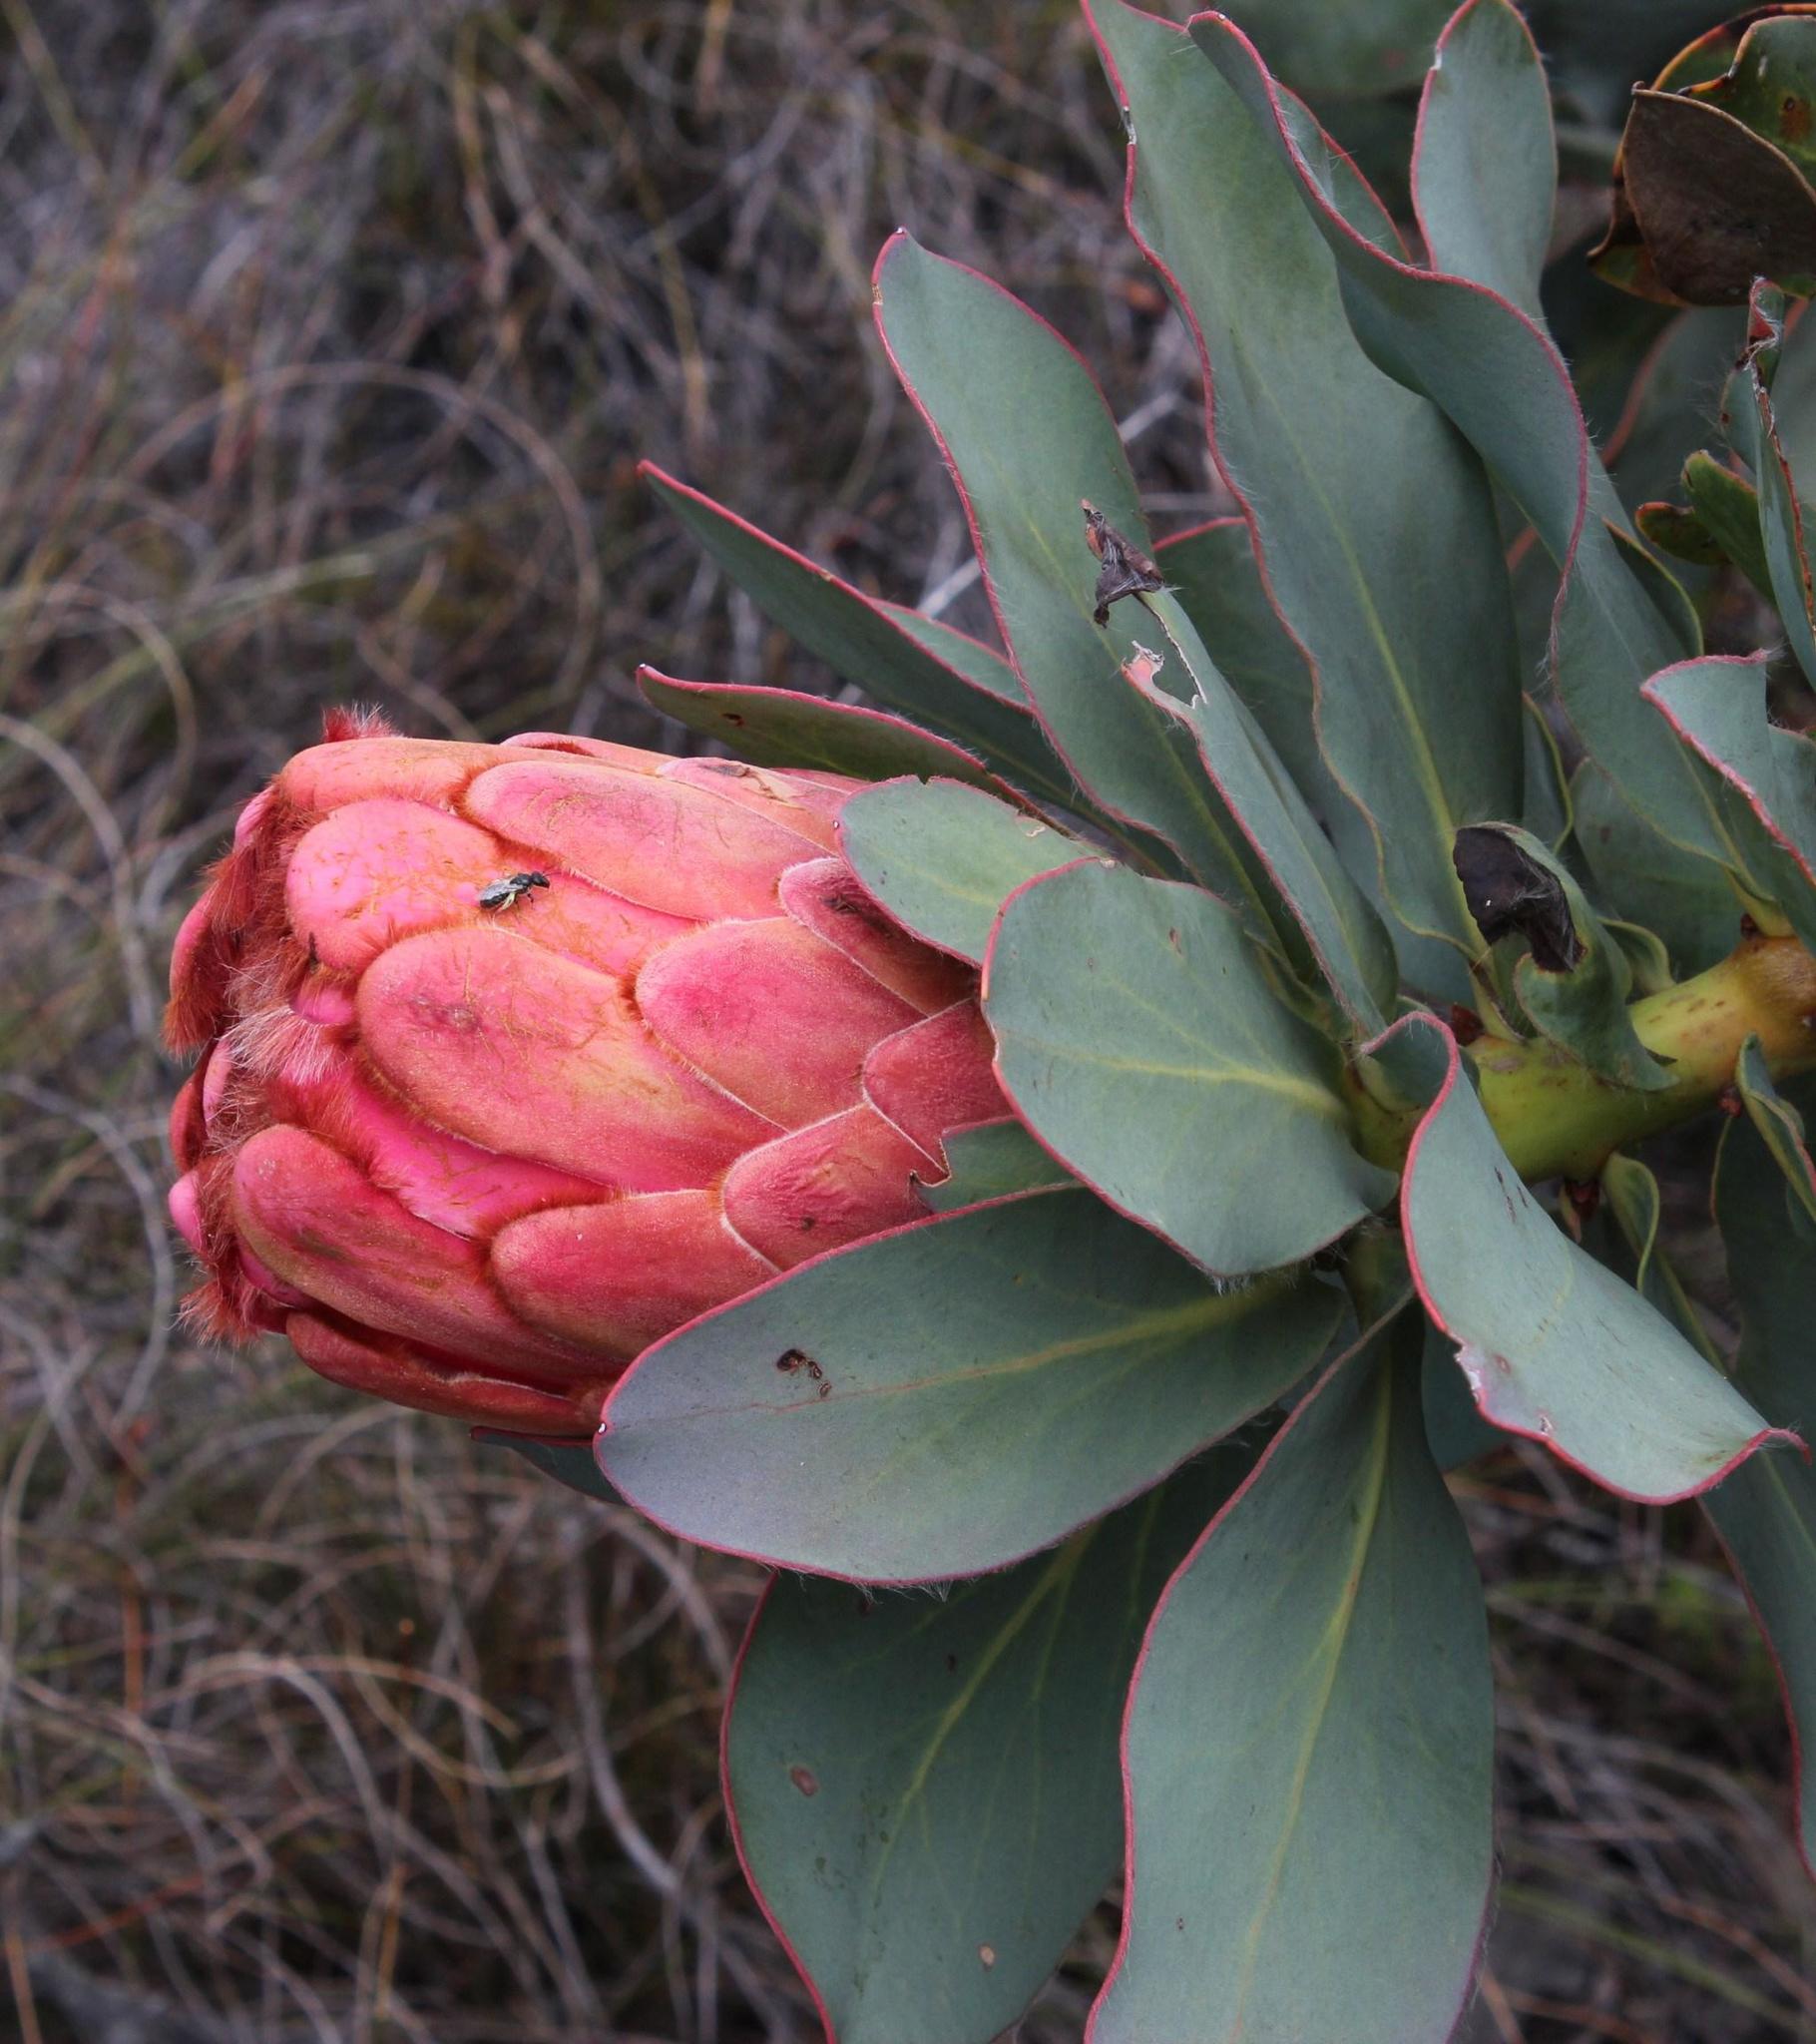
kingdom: Plantae
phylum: Tracheophyta
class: Magnoliopsida
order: Proteales
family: Proteaceae
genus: Protea
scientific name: Protea grandiceps
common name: Red sugarbush
